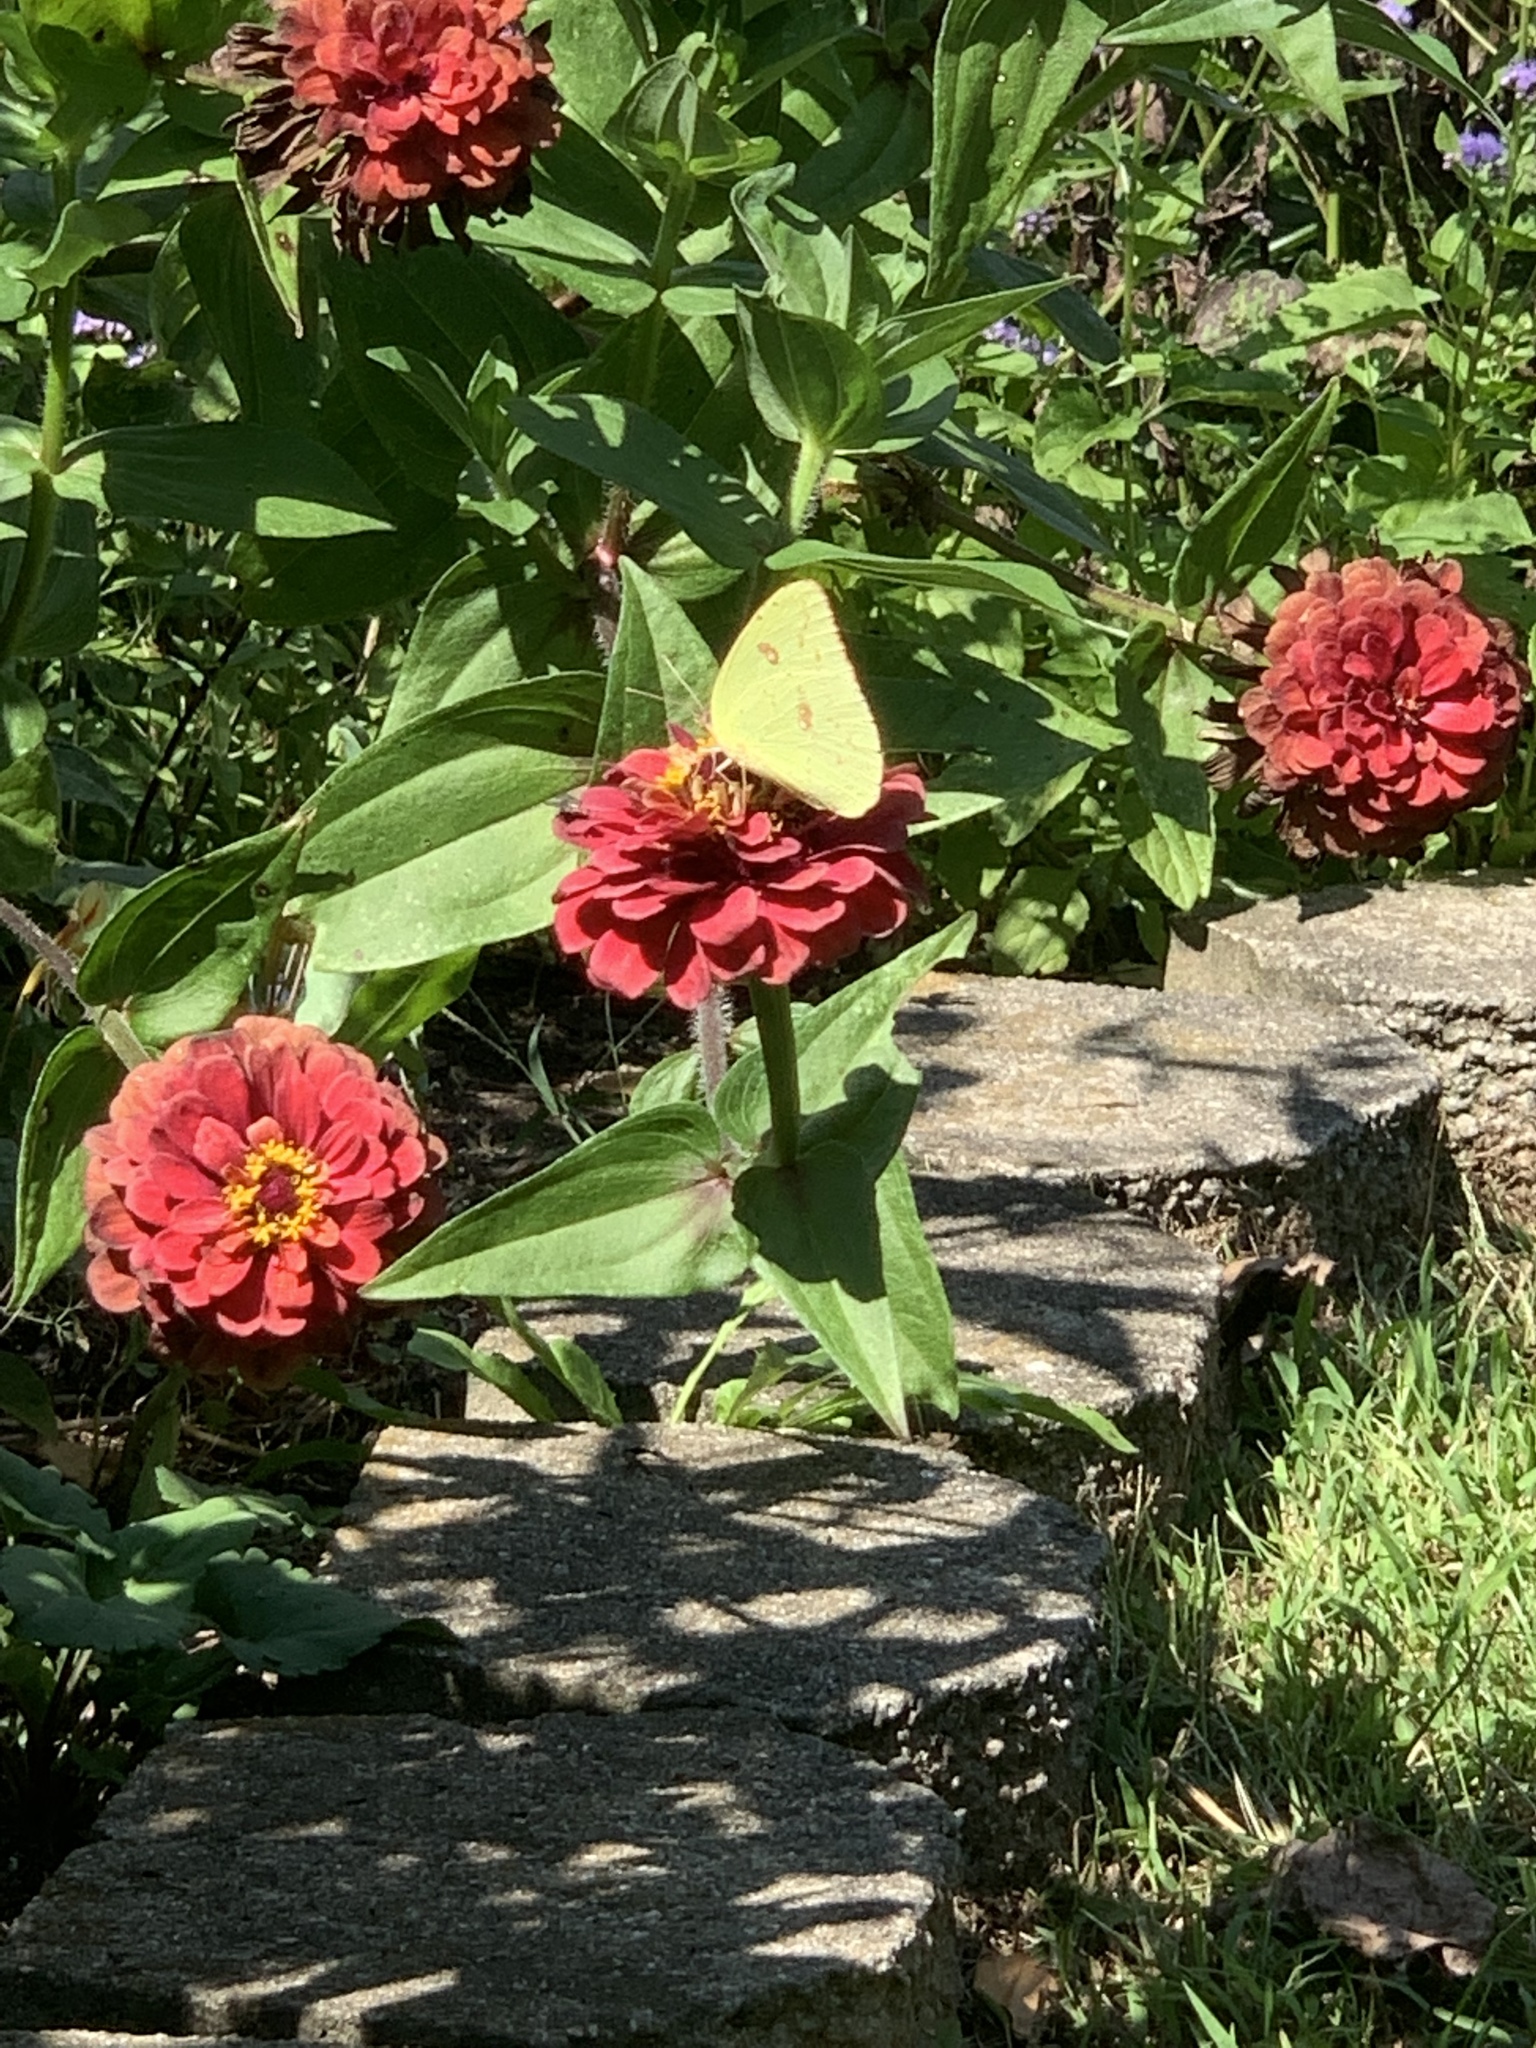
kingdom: Animalia
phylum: Arthropoda
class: Insecta
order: Lepidoptera
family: Pieridae
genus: Phoebis
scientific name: Phoebis sennae
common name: Cloudless sulphur
